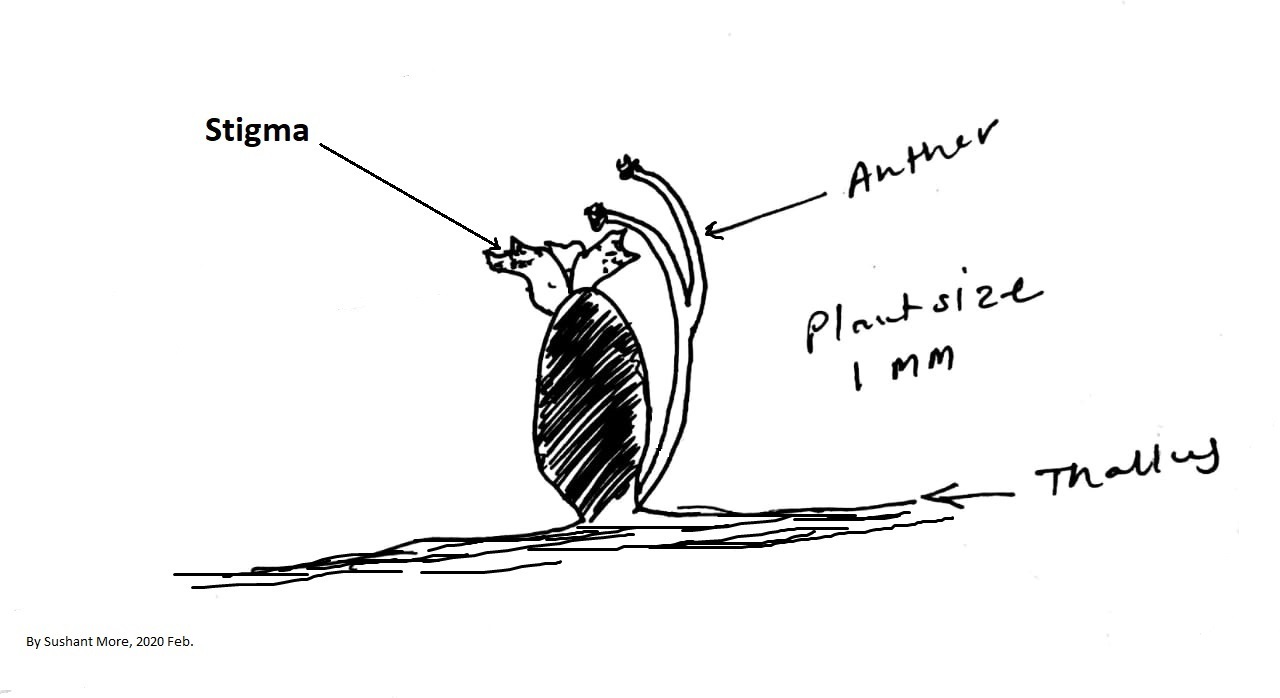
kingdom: Plantae
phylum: Tracheophyta
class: Magnoliopsida
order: Malpighiales
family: Podostemaceae
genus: Cladopus
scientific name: Cladopus hookeriana
